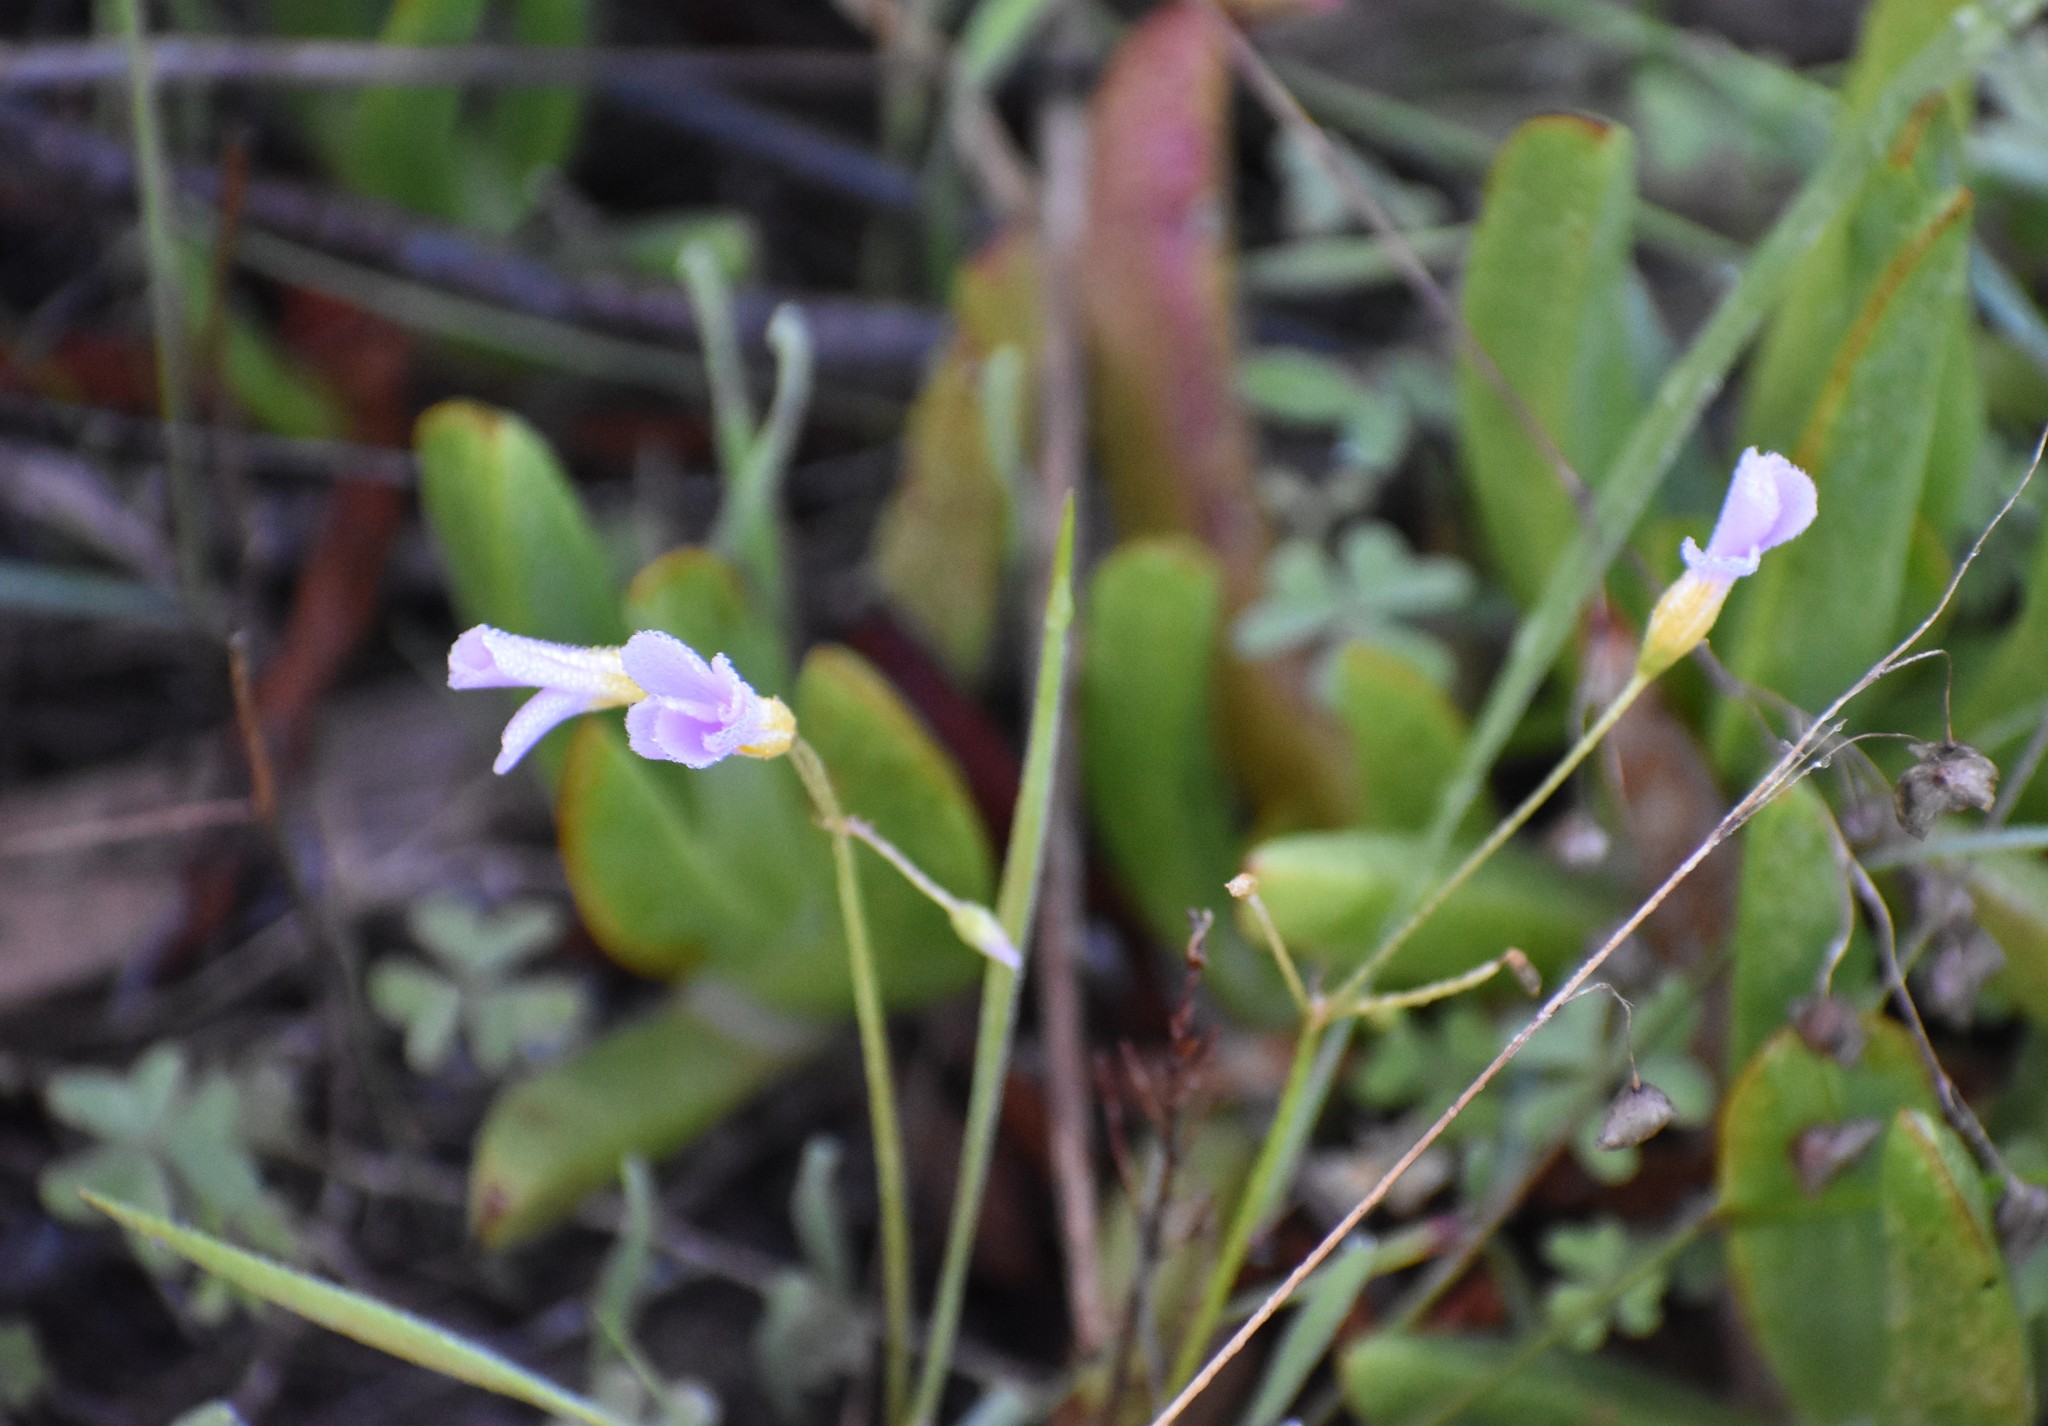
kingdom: Plantae
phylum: Tracheophyta
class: Magnoliopsida
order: Oxalidales
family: Oxalidaceae
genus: Oxalis
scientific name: Oxalis caprina
